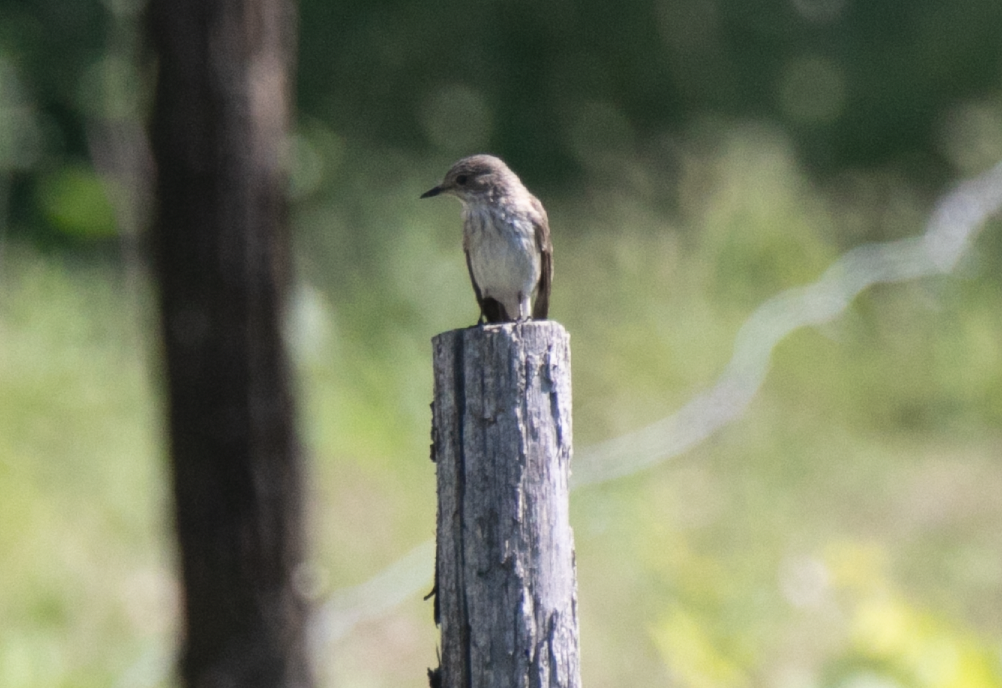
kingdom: Animalia
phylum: Chordata
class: Aves
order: Passeriformes
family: Muscicapidae
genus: Muscicapa
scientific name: Muscicapa striata
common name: Spotted flycatcher
